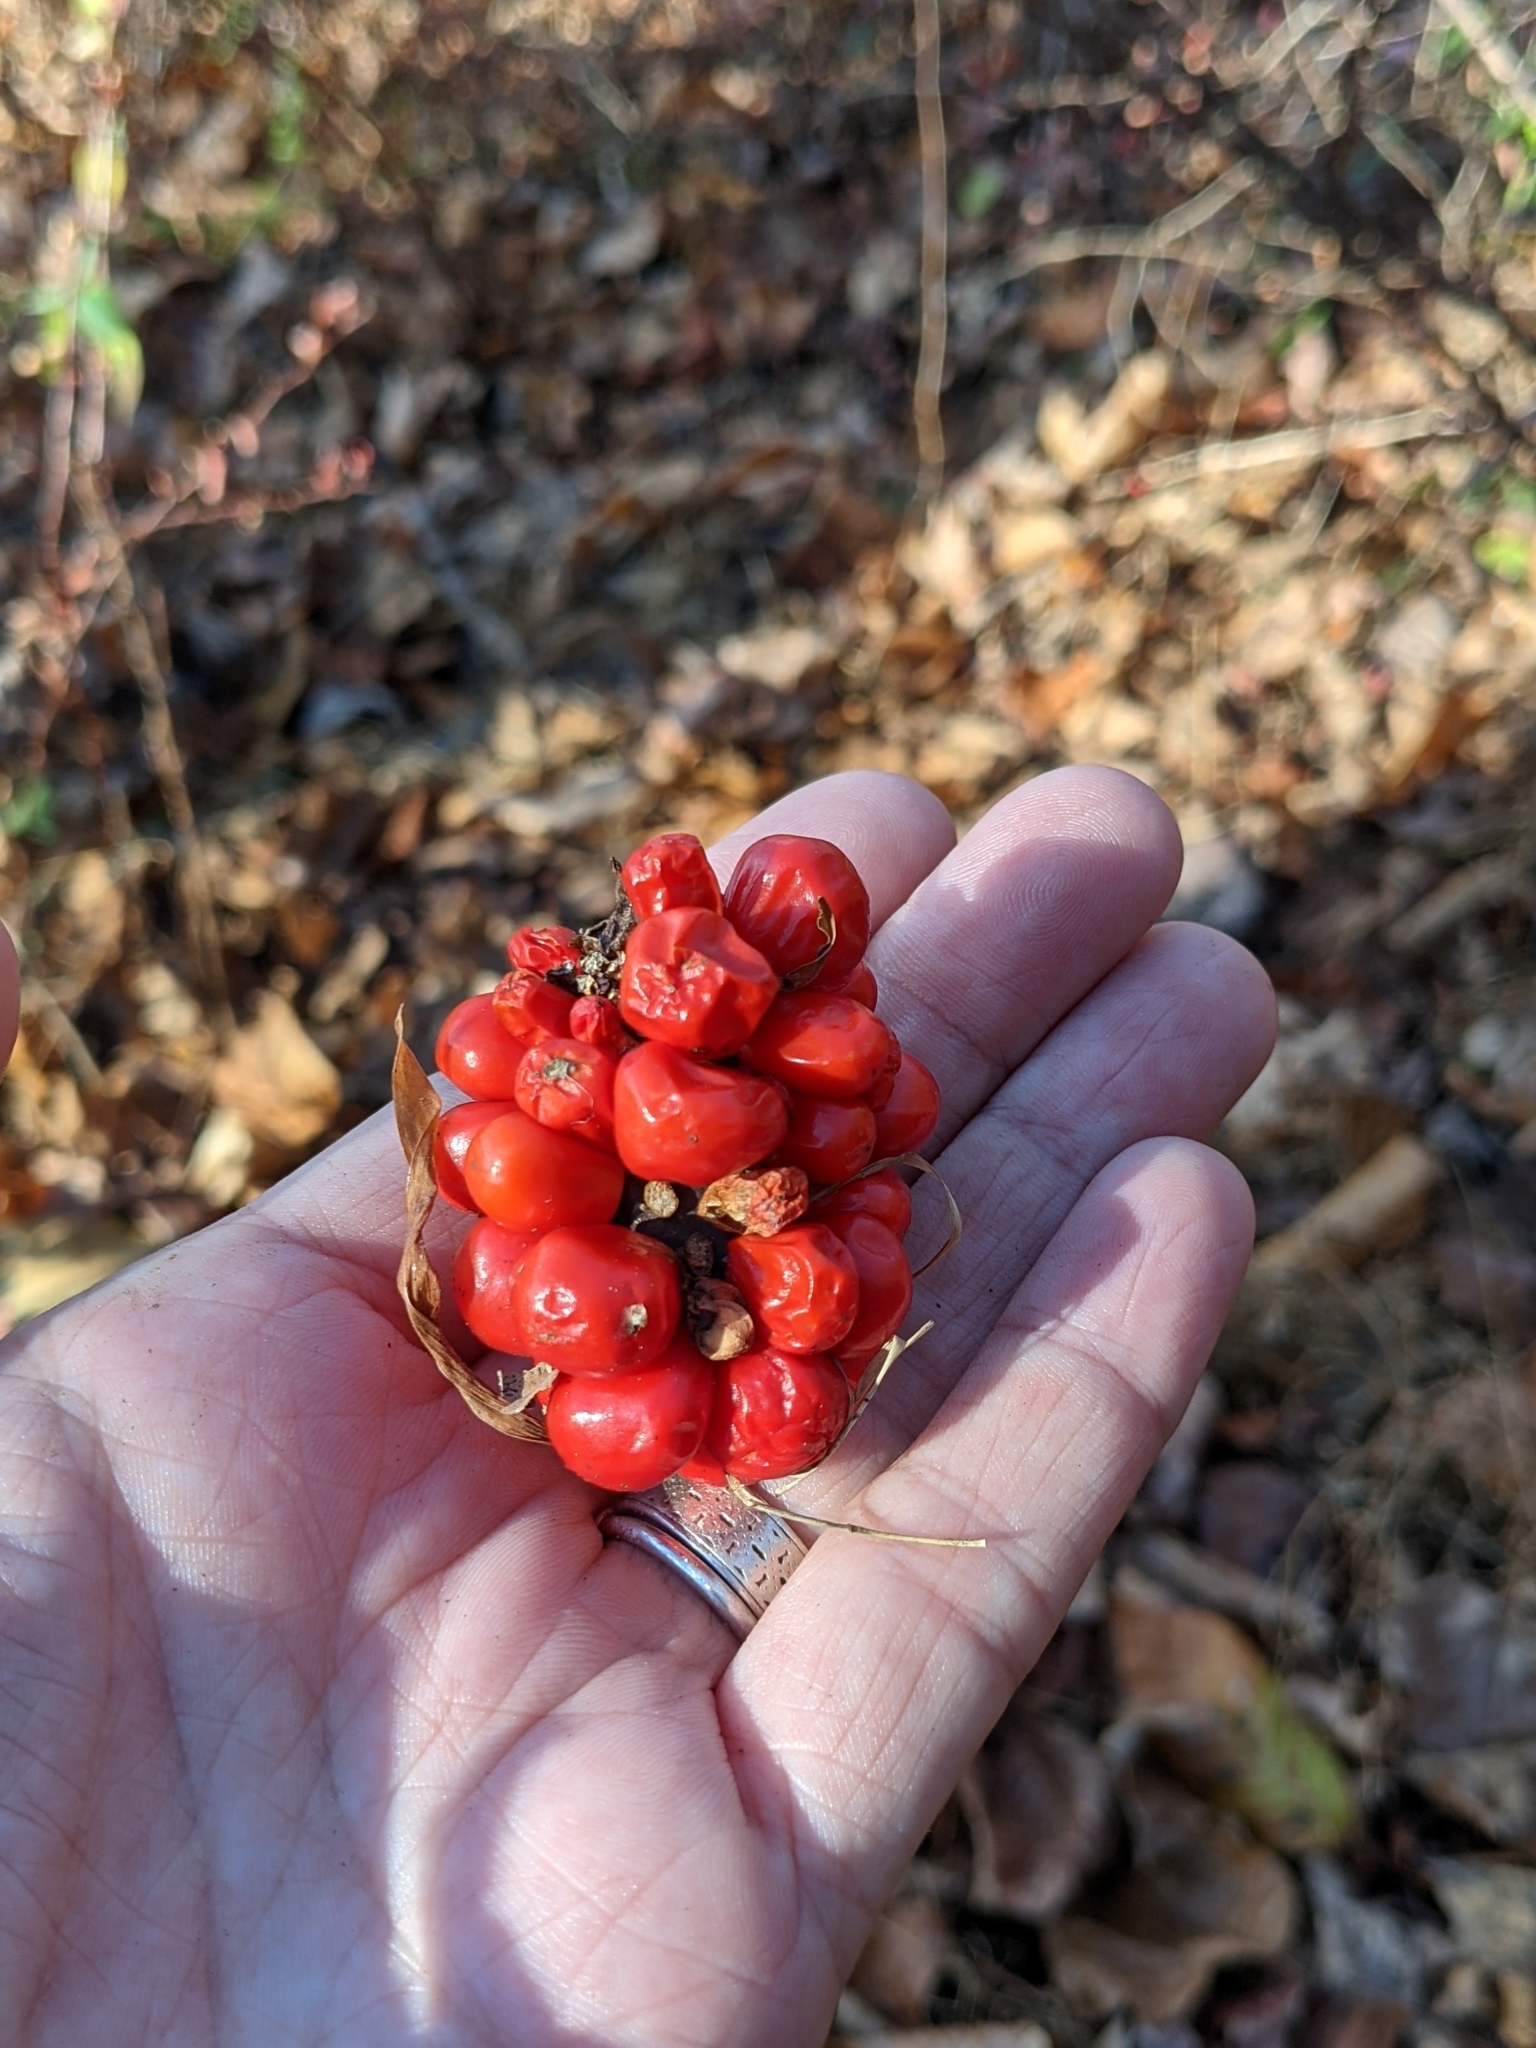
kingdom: Plantae
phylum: Tracheophyta
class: Liliopsida
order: Alismatales
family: Araceae
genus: Arisaema
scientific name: Arisaema
